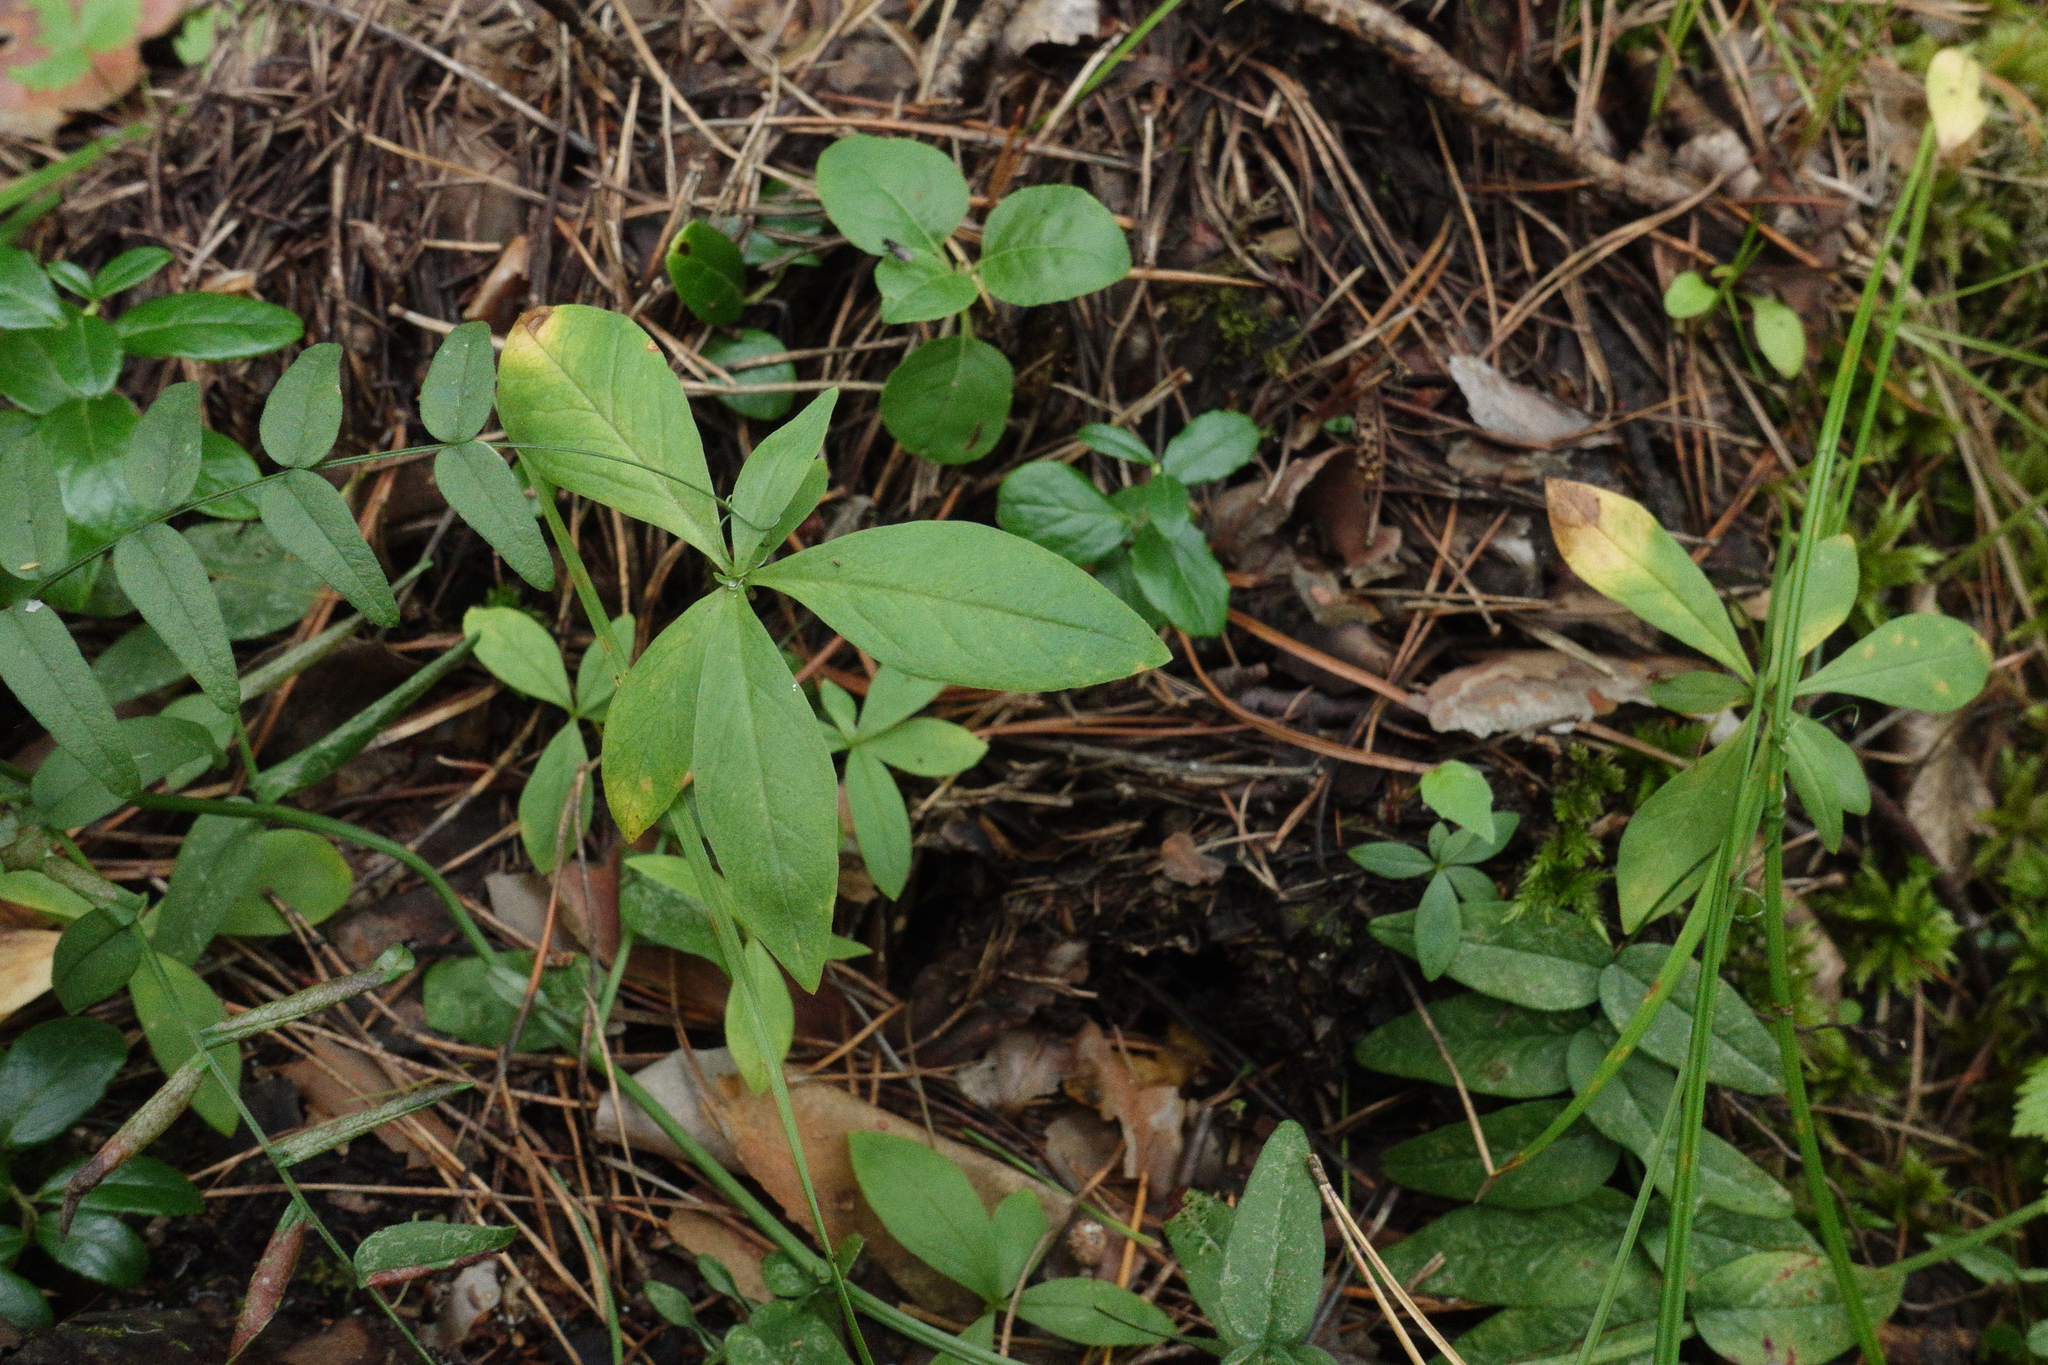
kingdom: Plantae
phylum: Tracheophyta
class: Magnoliopsida
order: Ericales
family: Primulaceae
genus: Lysimachia
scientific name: Lysimachia europaea
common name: Arctic starflower
